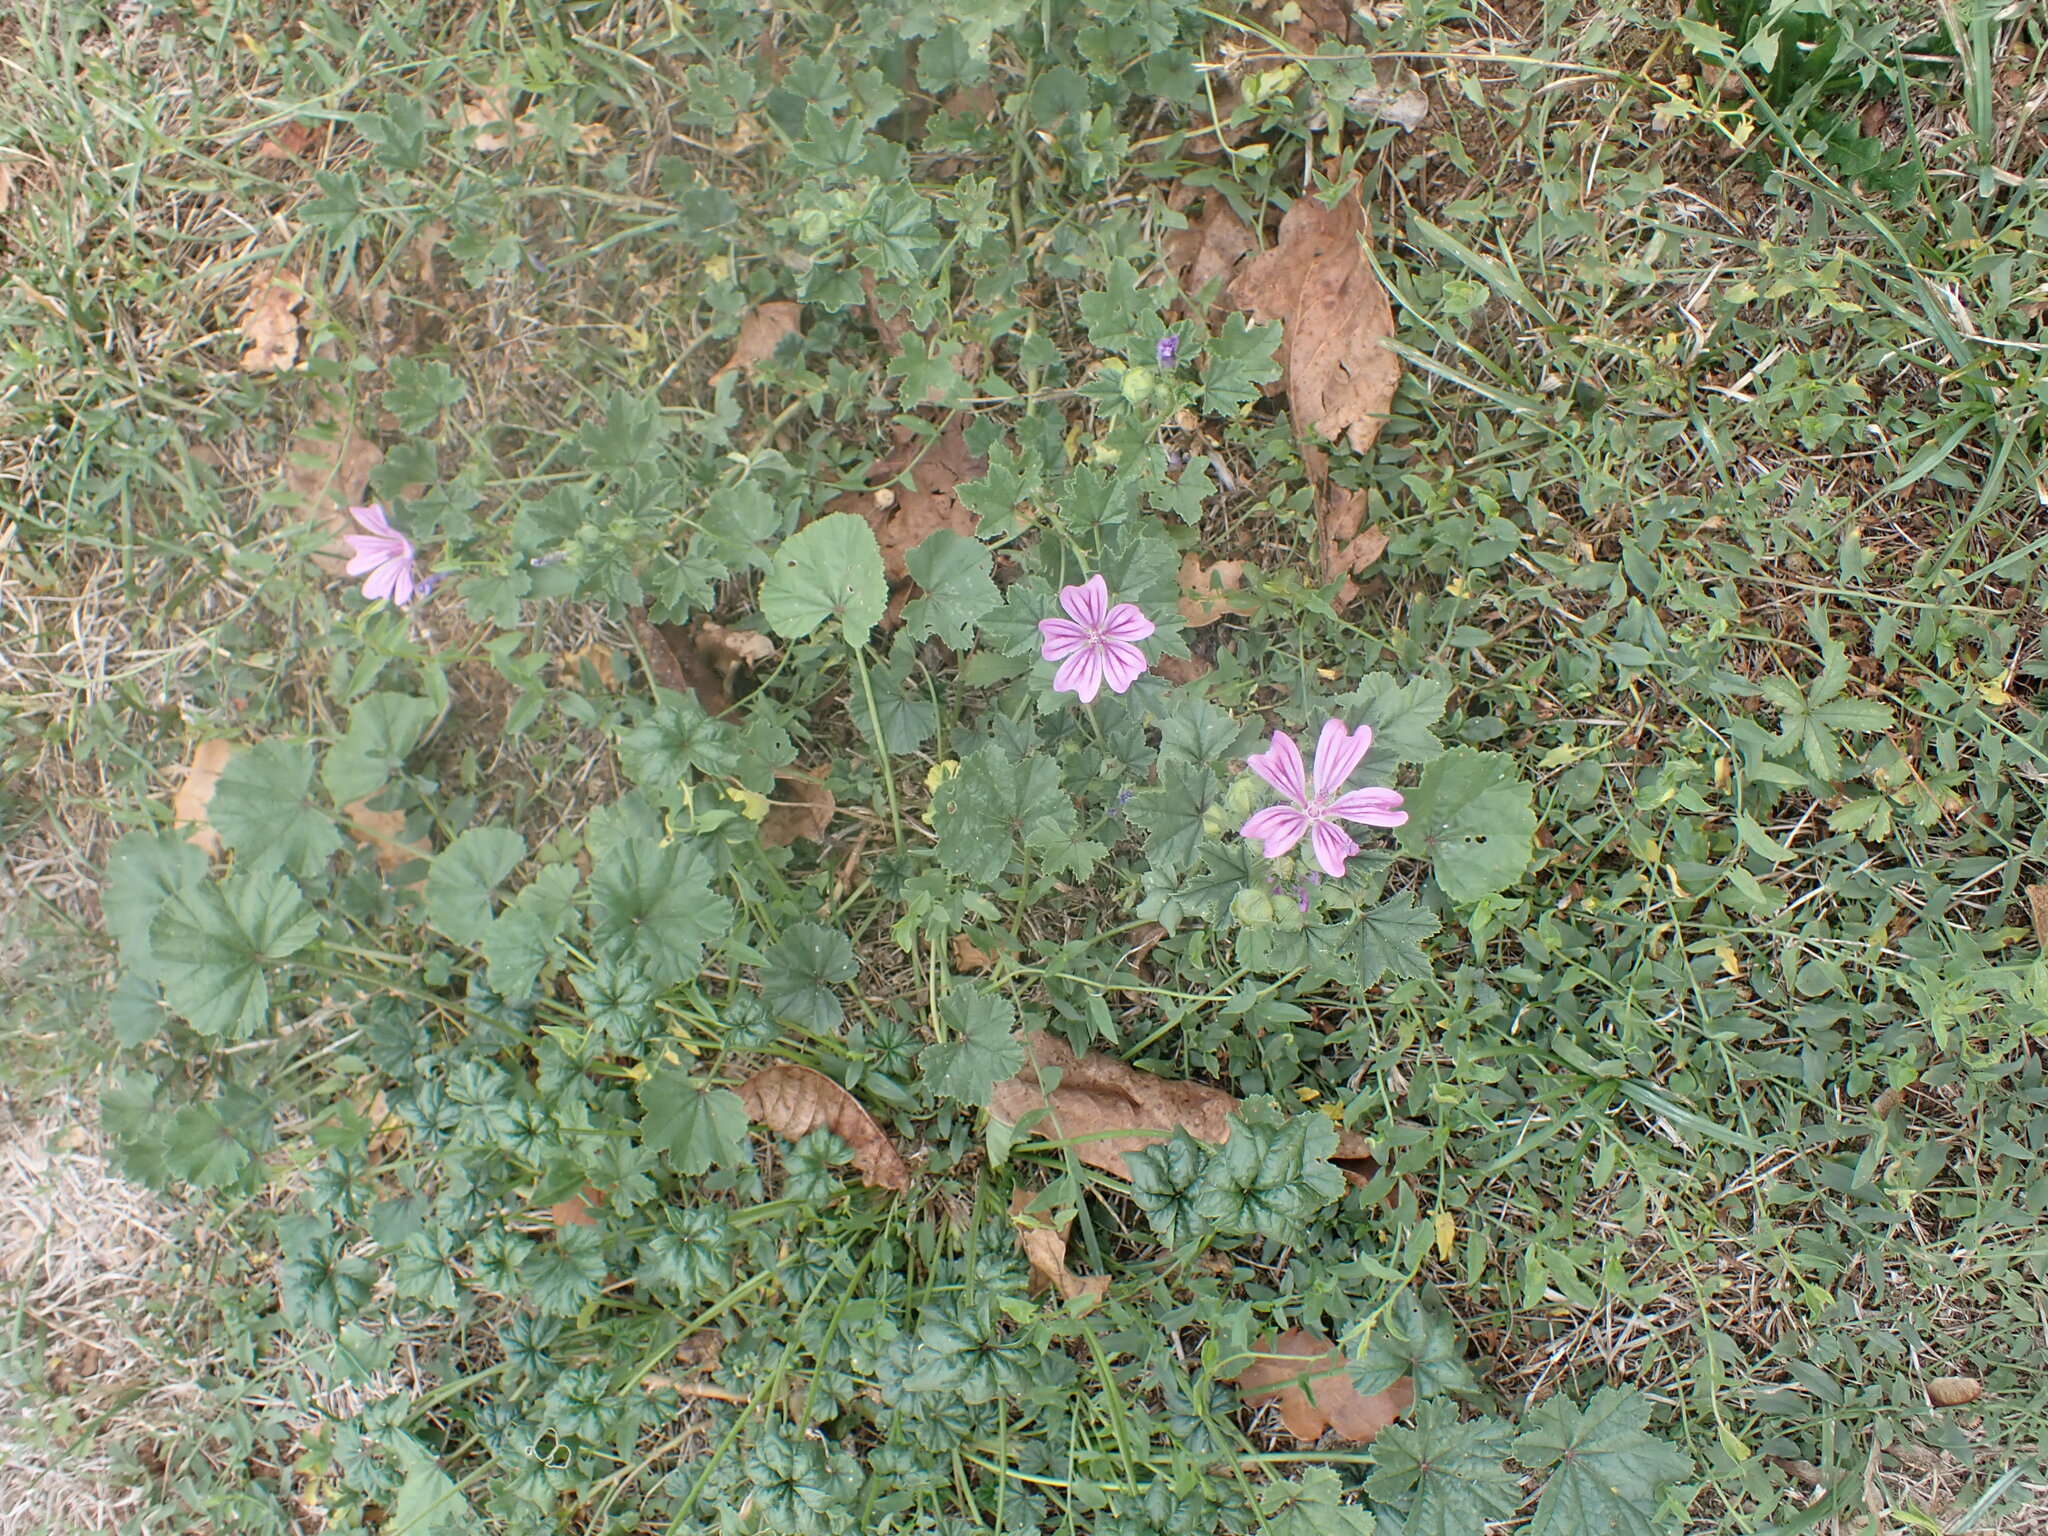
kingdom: Plantae
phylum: Tracheophyta
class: Magnoliopsida
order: Malvales
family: Malvaceae
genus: Malva
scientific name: Malva sylvestris
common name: Common mallow
